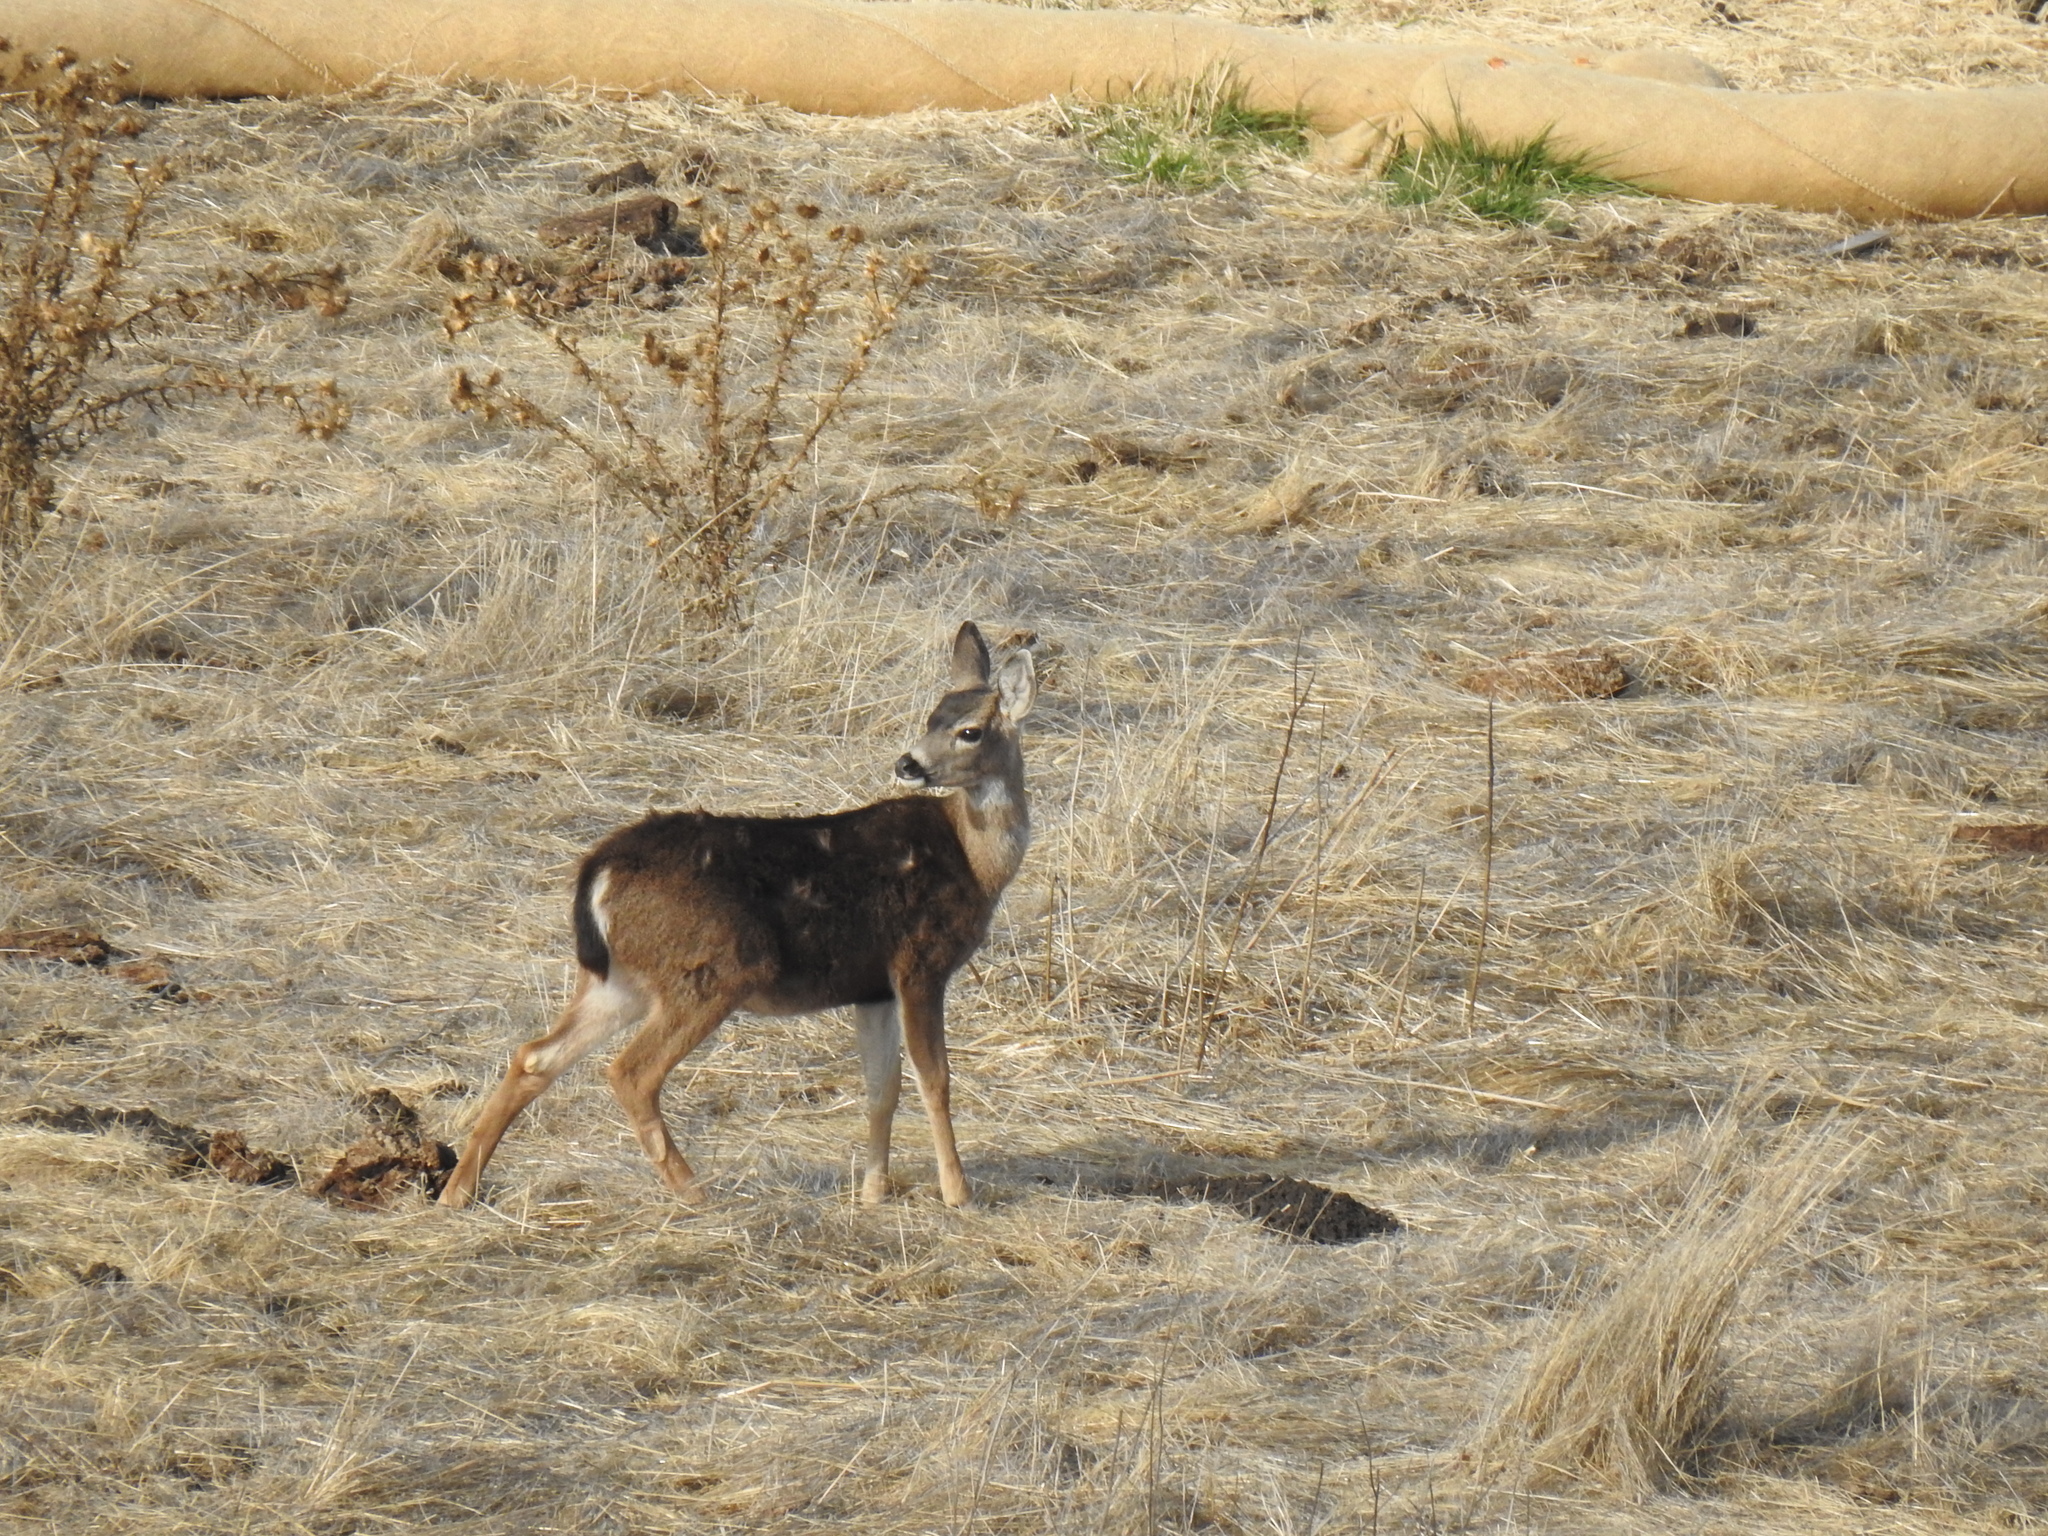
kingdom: Animalia
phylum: Chordata
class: Mammalia
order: Artiodactyla
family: Cervidae
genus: Odocoileus
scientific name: Odocoileus hemionus
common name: Mule deer
